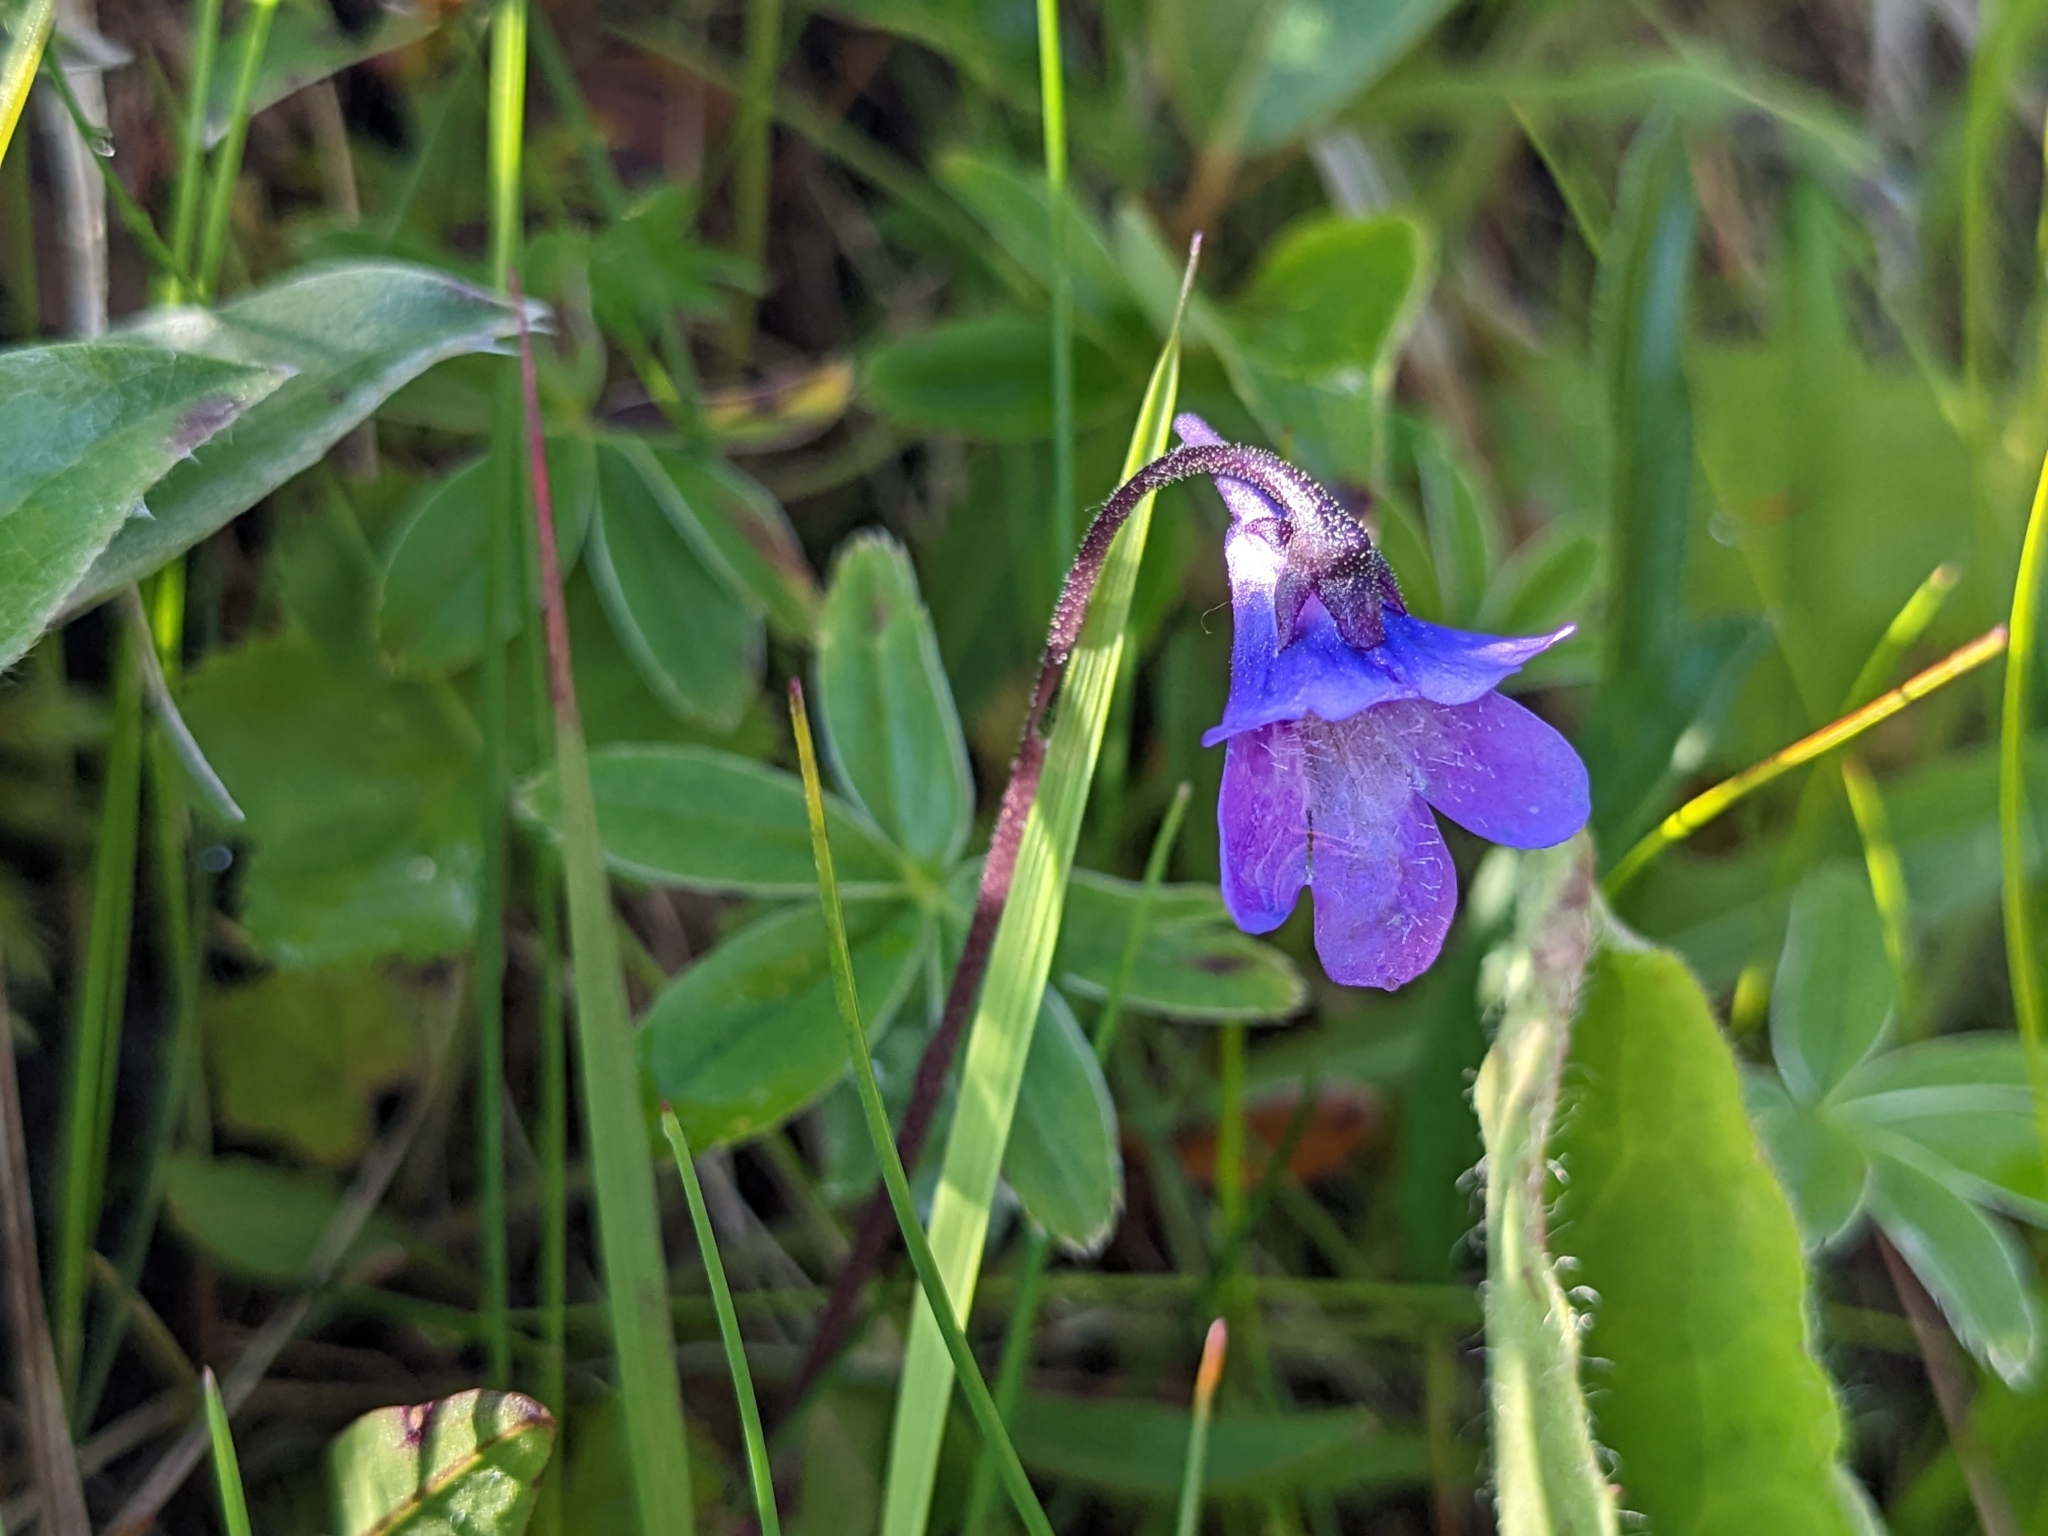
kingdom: Plantae
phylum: Tracheophyta
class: Magnoliopsida
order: Lamiales
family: Lentibulariaceae
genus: Pinguicula
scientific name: Pinguicula vulgaris
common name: Common butterwort
